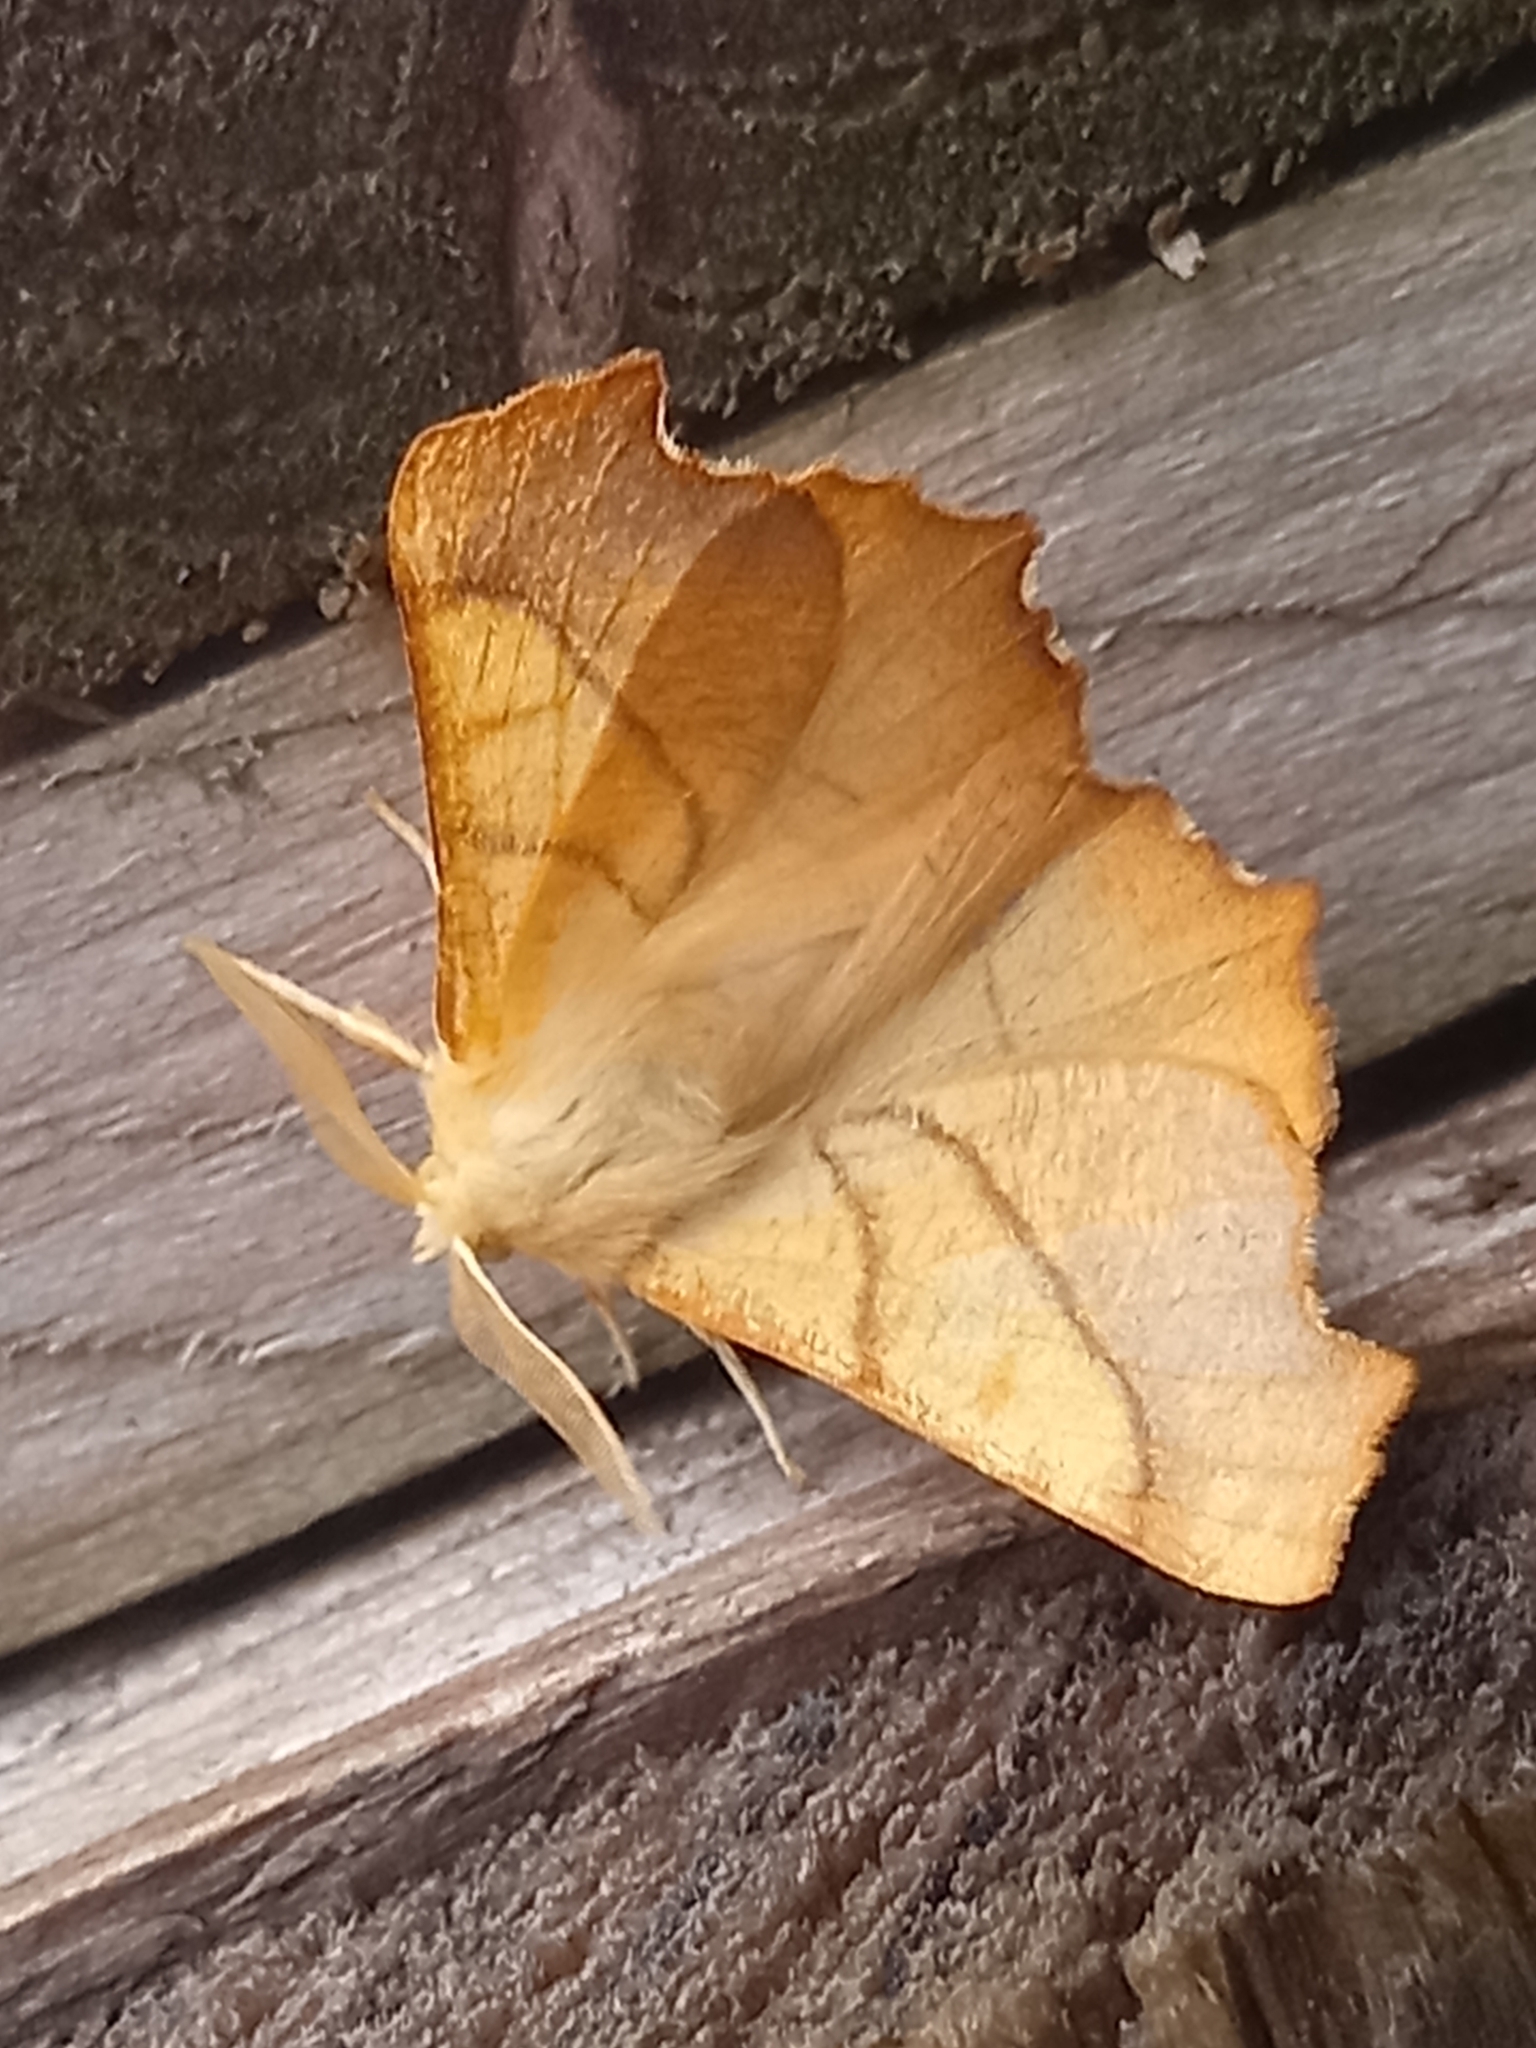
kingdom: Animalia
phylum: Arthropoda
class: Insecta
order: Lepidoptera
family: Geometridae
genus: Ennomos
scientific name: Ennomos fuscantaria
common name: Dusky thorn
